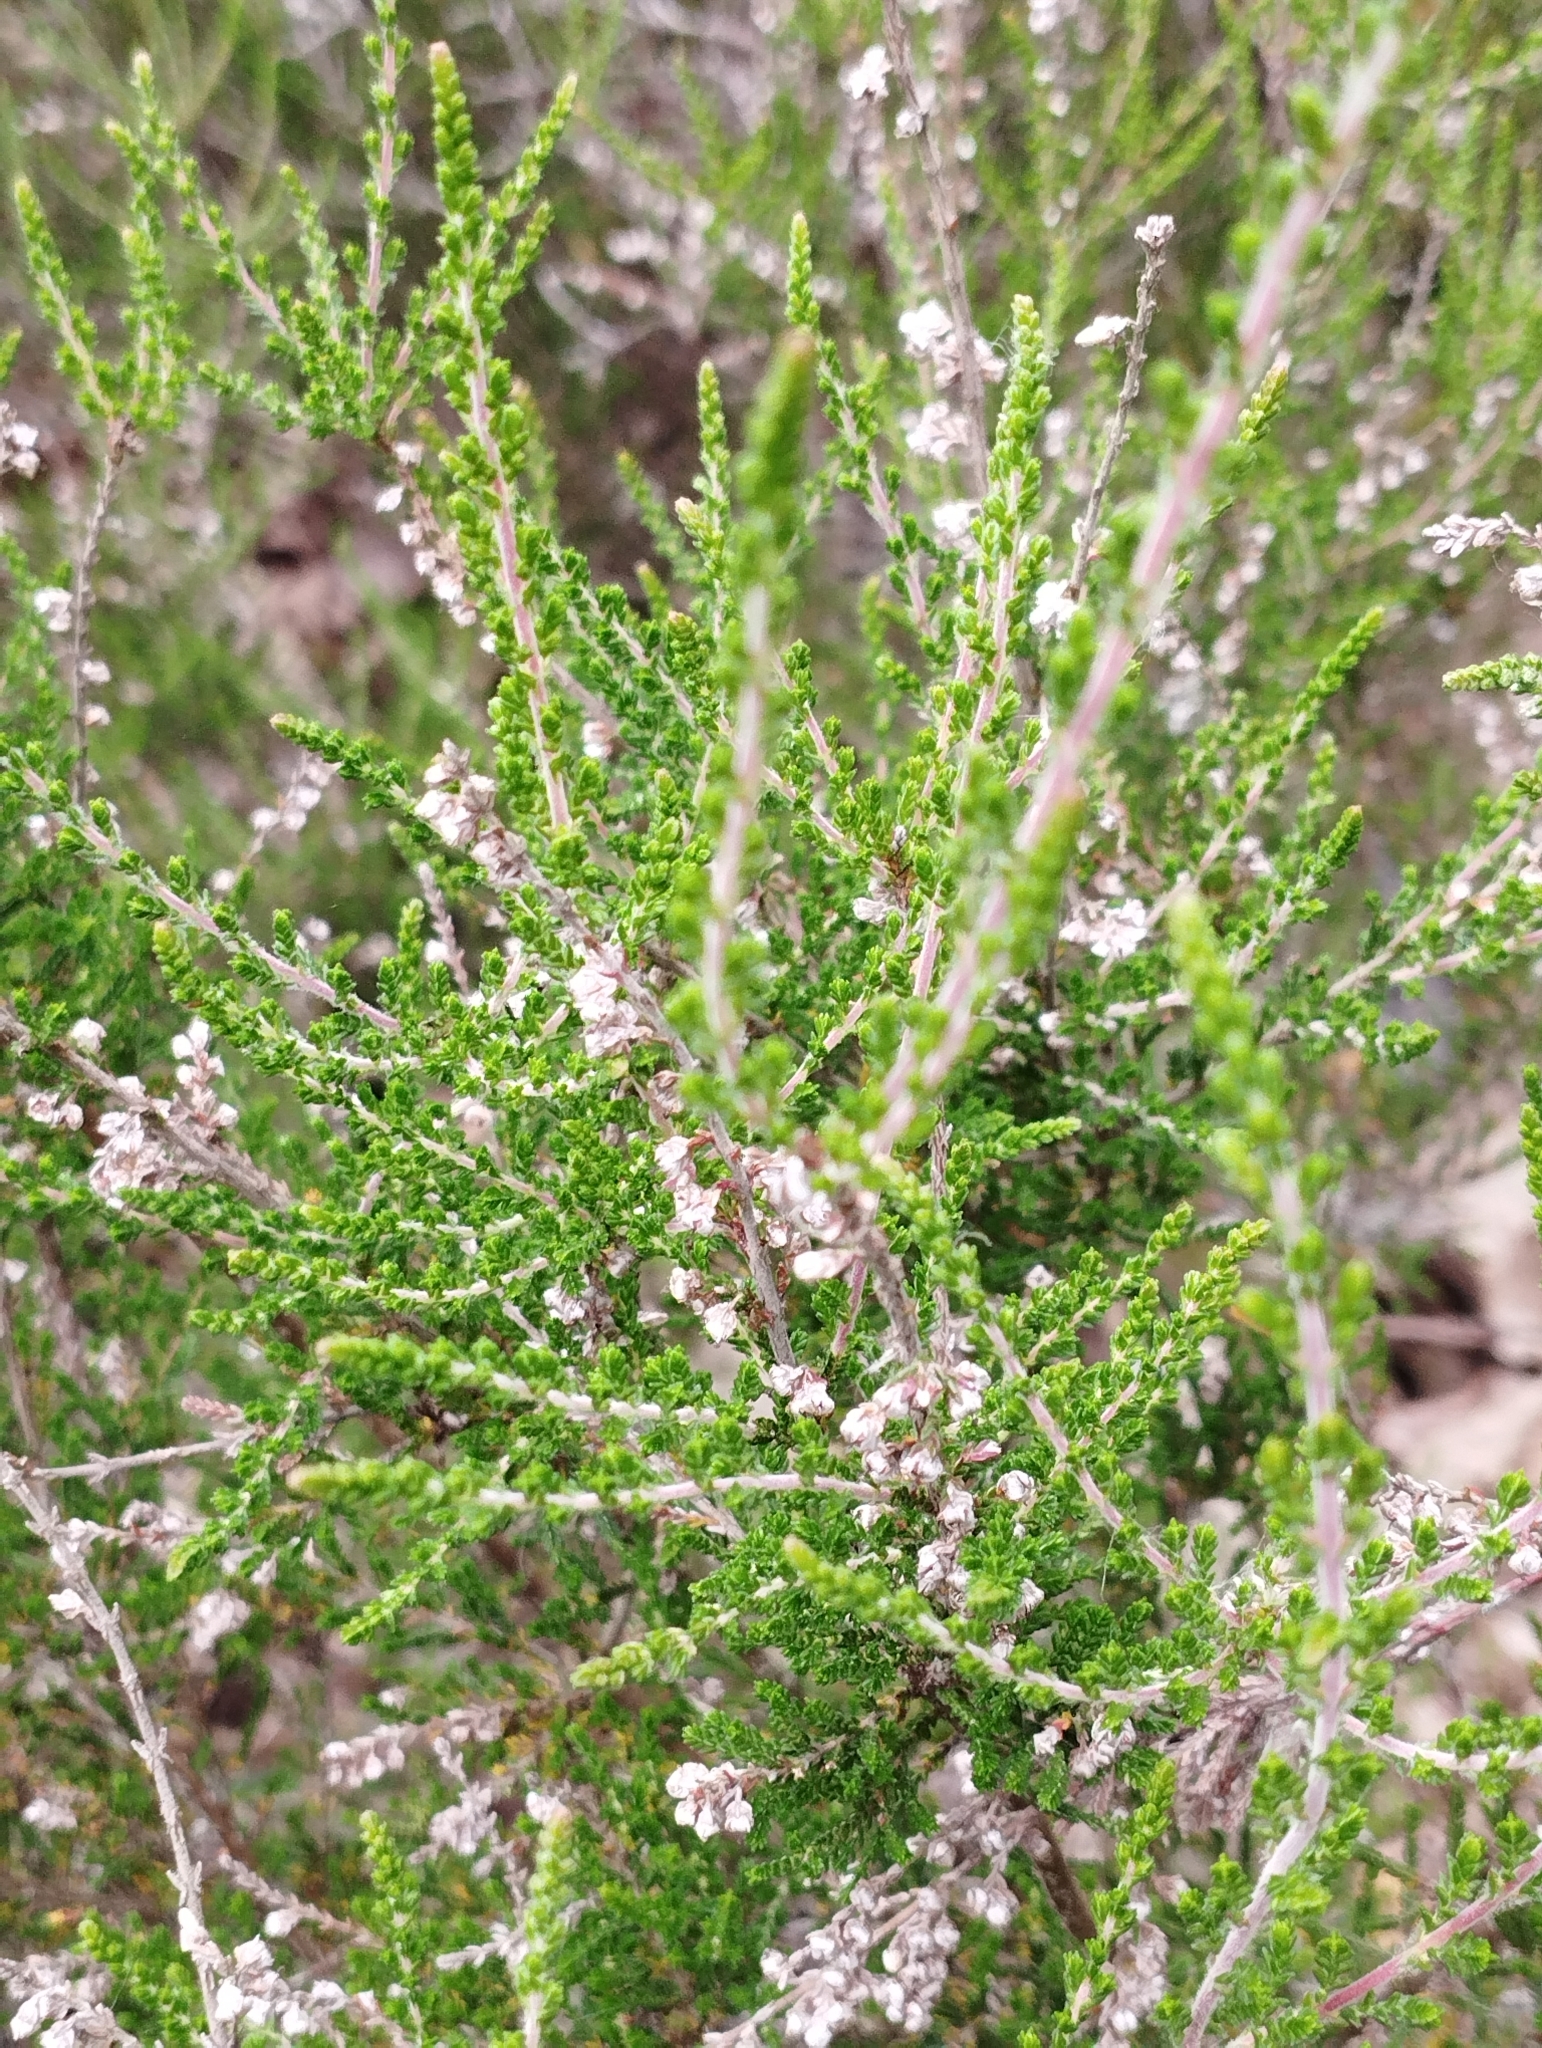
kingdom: Plantae
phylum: Tracheophyta
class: Magnoliopsida
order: Ericales
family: Ericaceae
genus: Calluna
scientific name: Calluna vulgaris
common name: Heather
